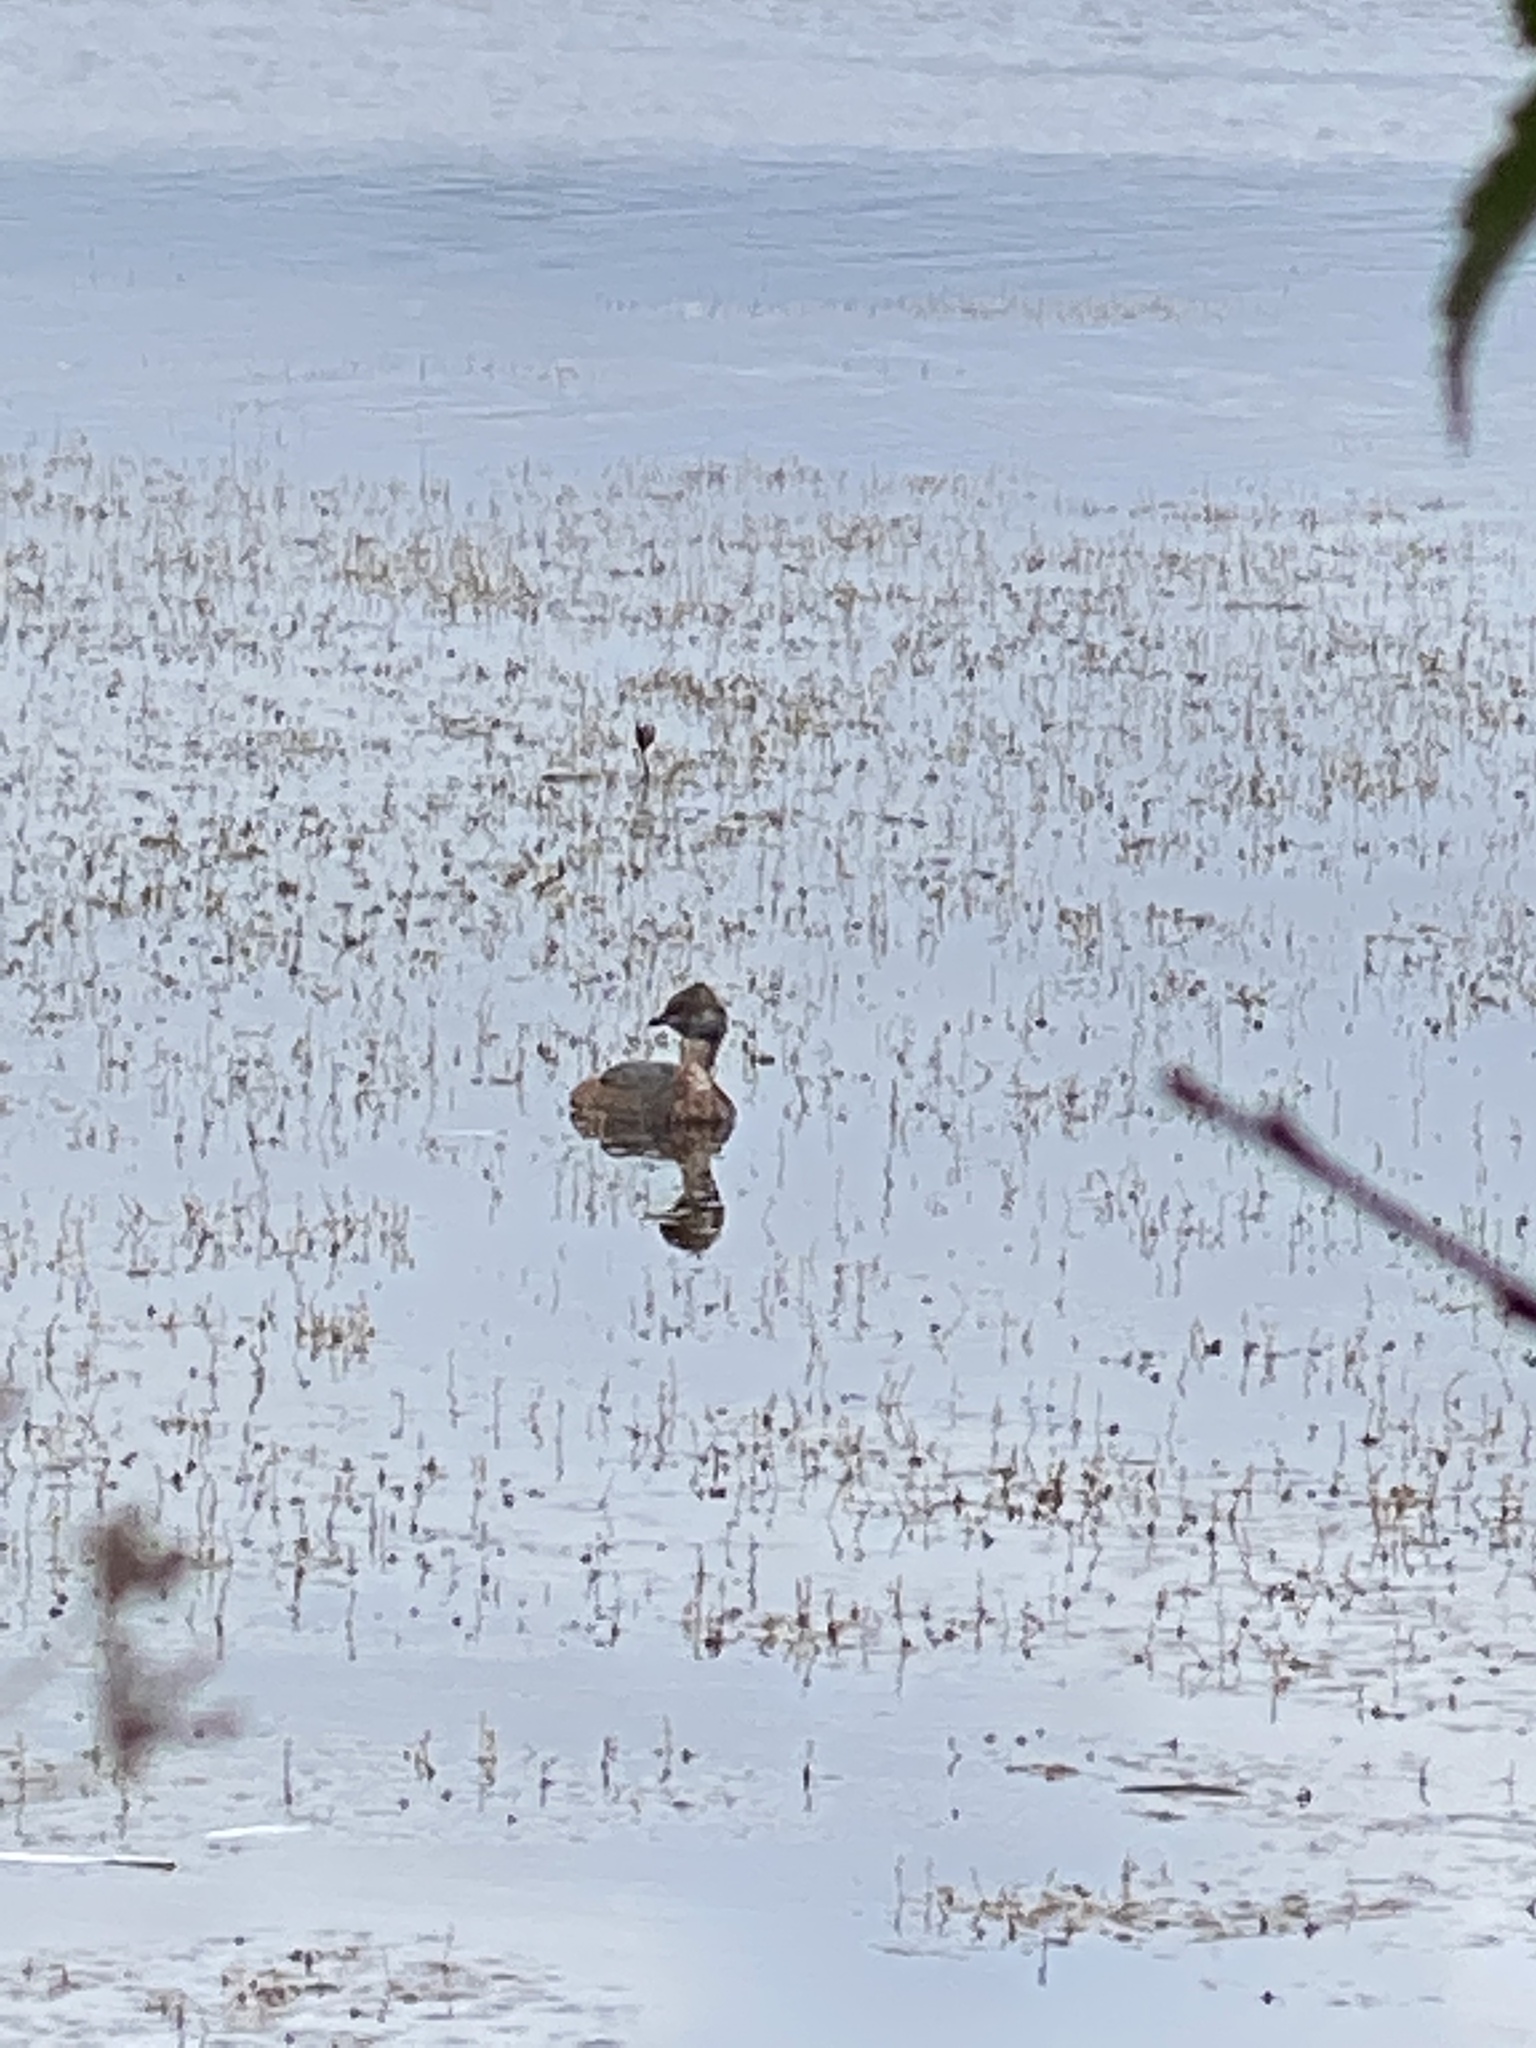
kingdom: Animalia
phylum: Chordata
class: Aves
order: Podicipediformes
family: Podicipedidae
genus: Podiceps
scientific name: Podiceps auritus
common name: Horned grebe
